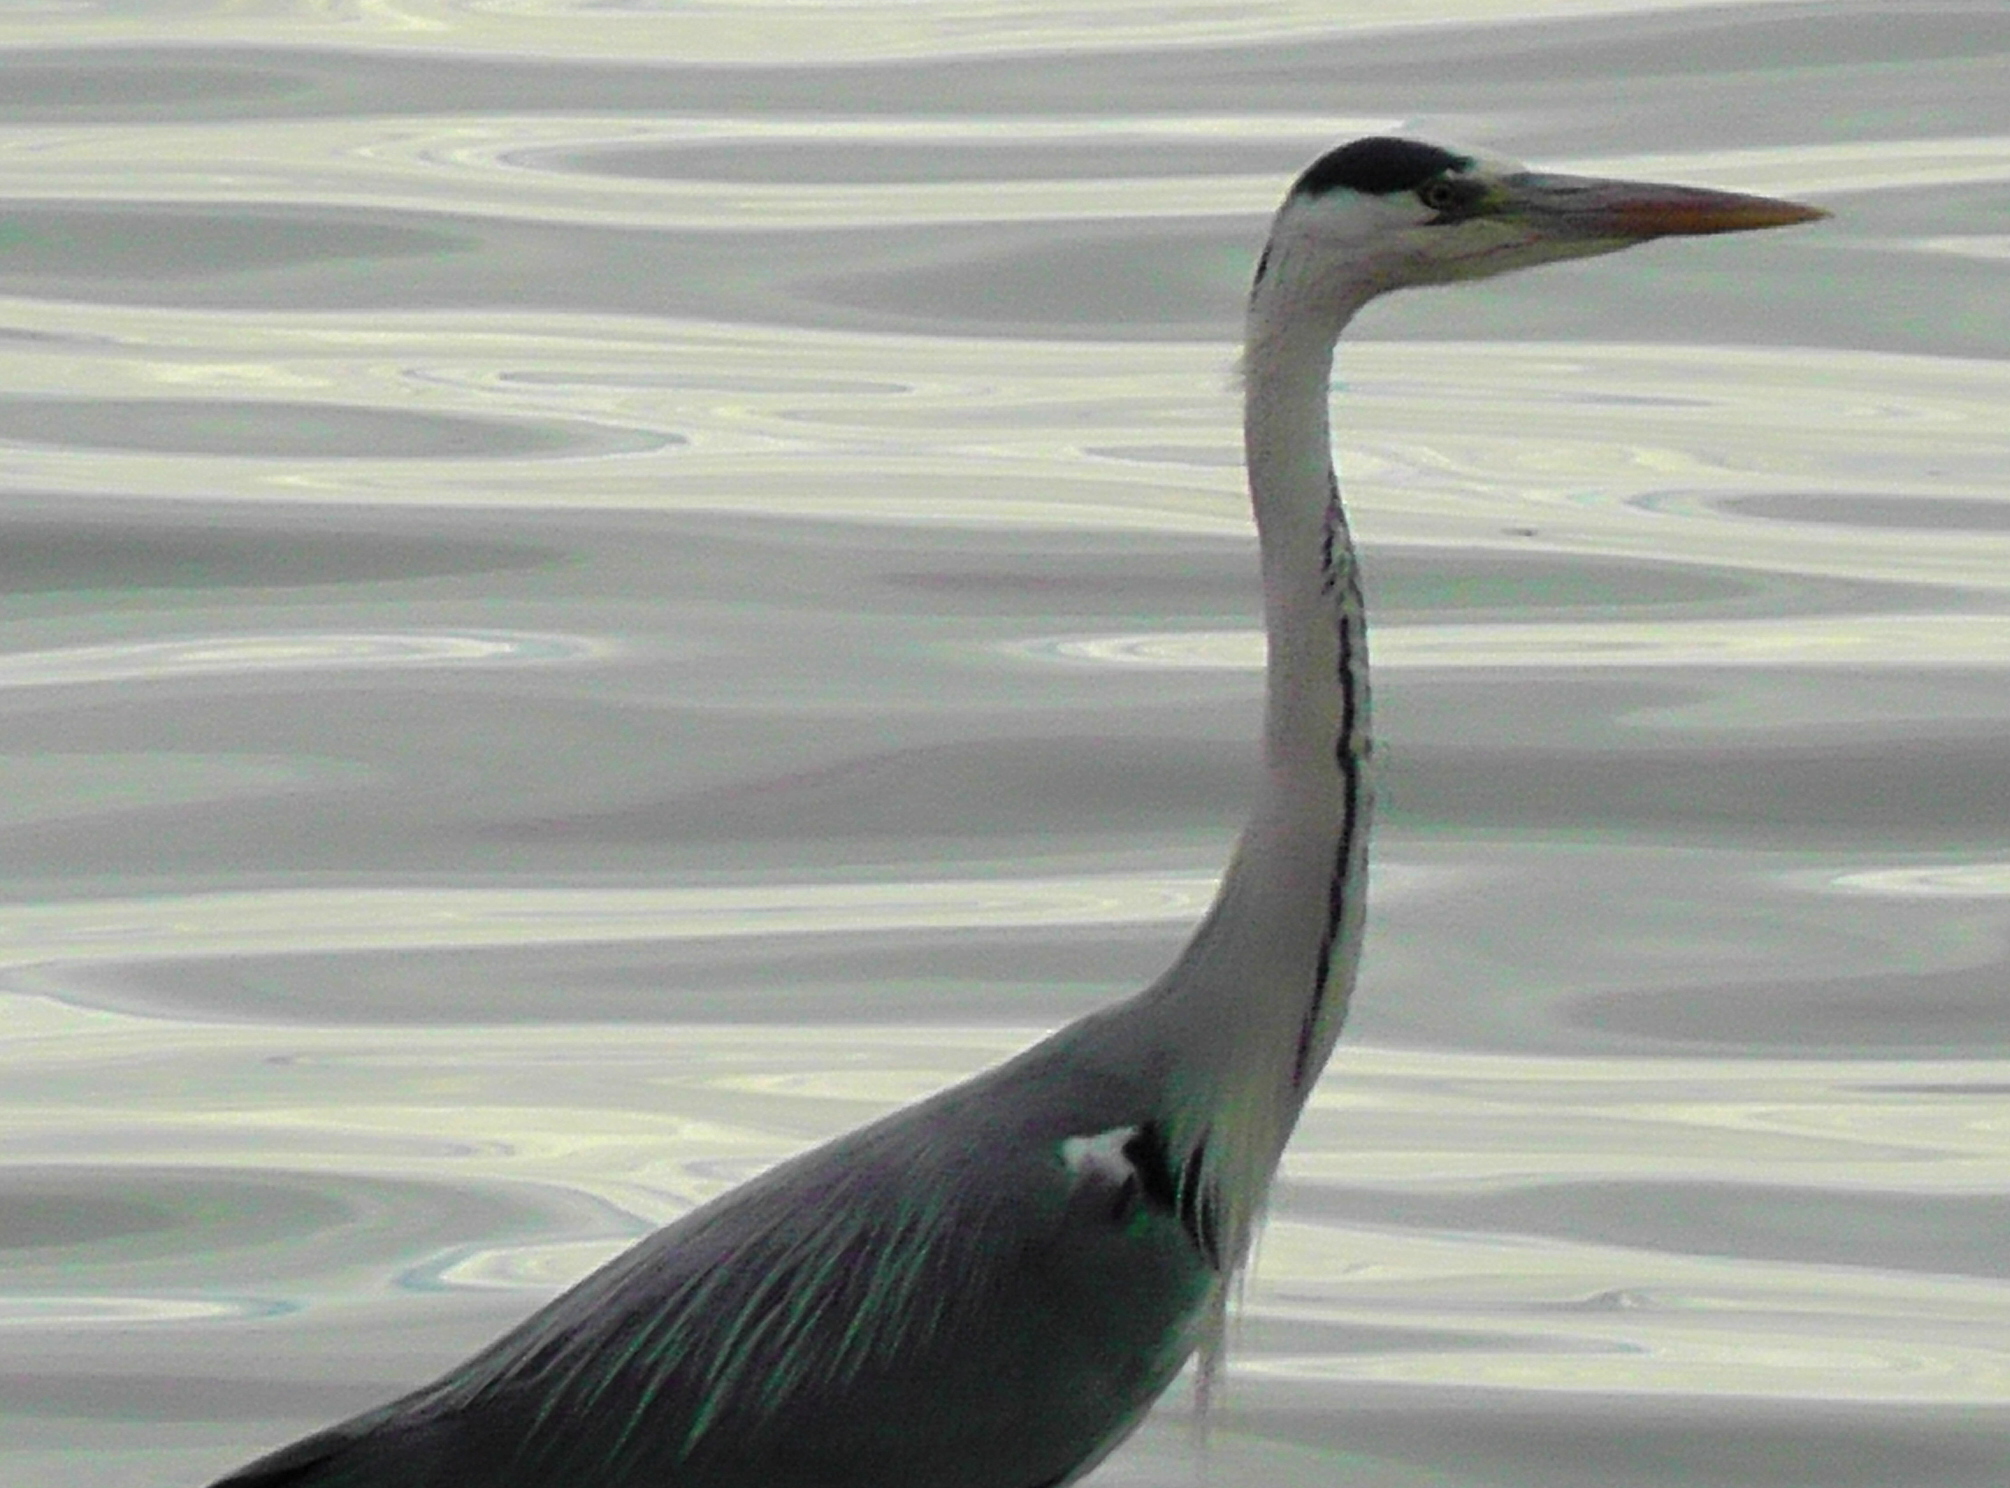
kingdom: Animalia
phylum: Chordata
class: Aves
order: Pelecaniformes
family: Ardeidae
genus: Ardea
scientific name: Ardea cinerea
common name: Grey heron
